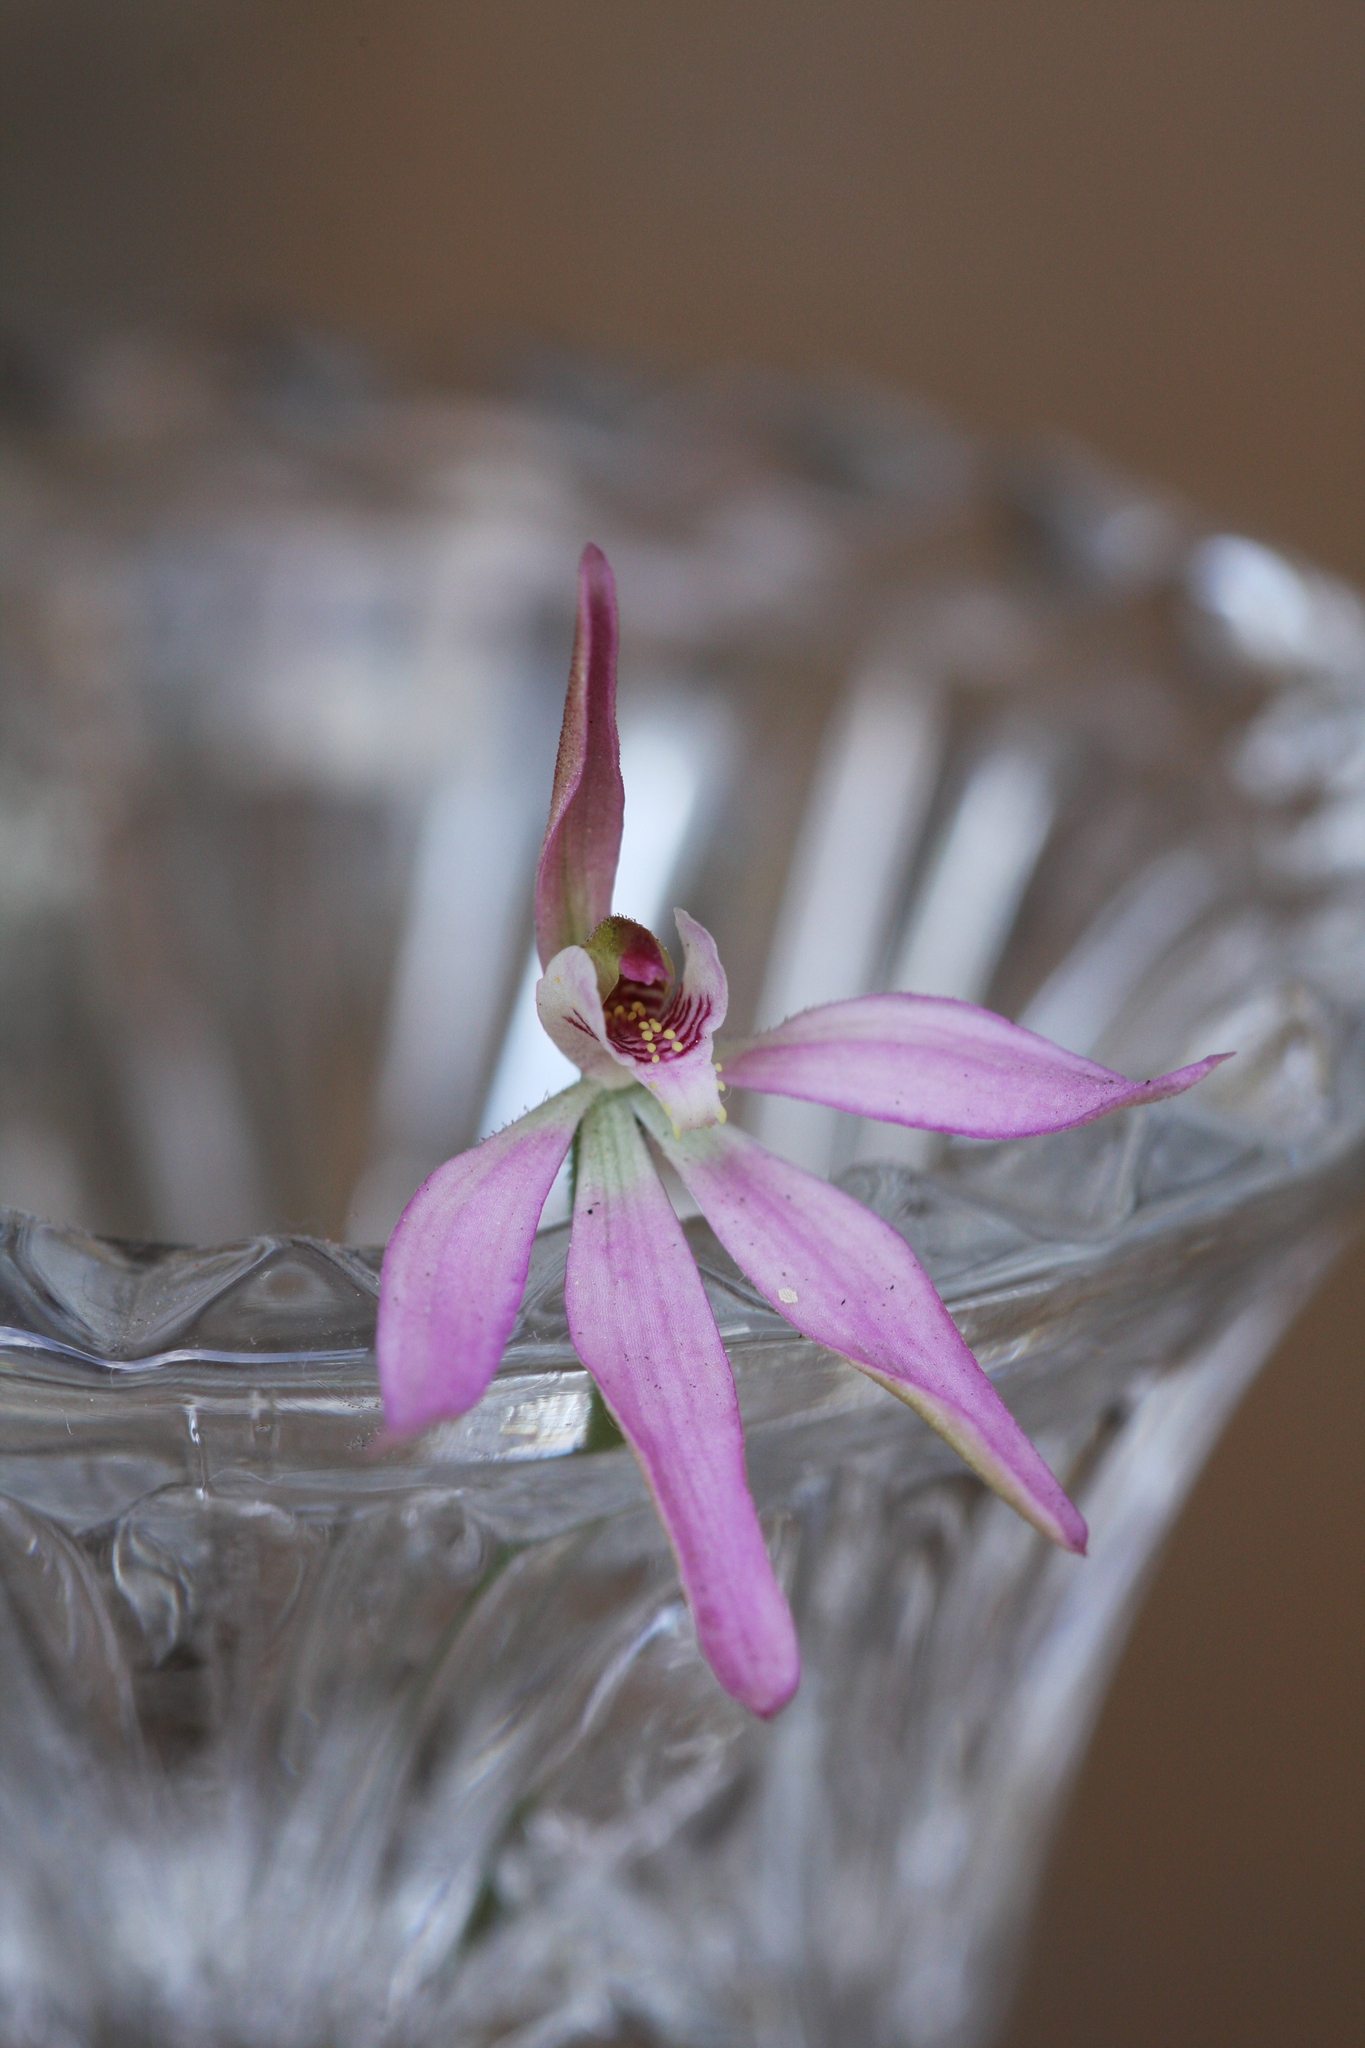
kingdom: Plantae
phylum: Tracheophyta
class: Liliopsida
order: Asparagales
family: Orchidaceae
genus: Caladenia
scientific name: Caladenia carnea
